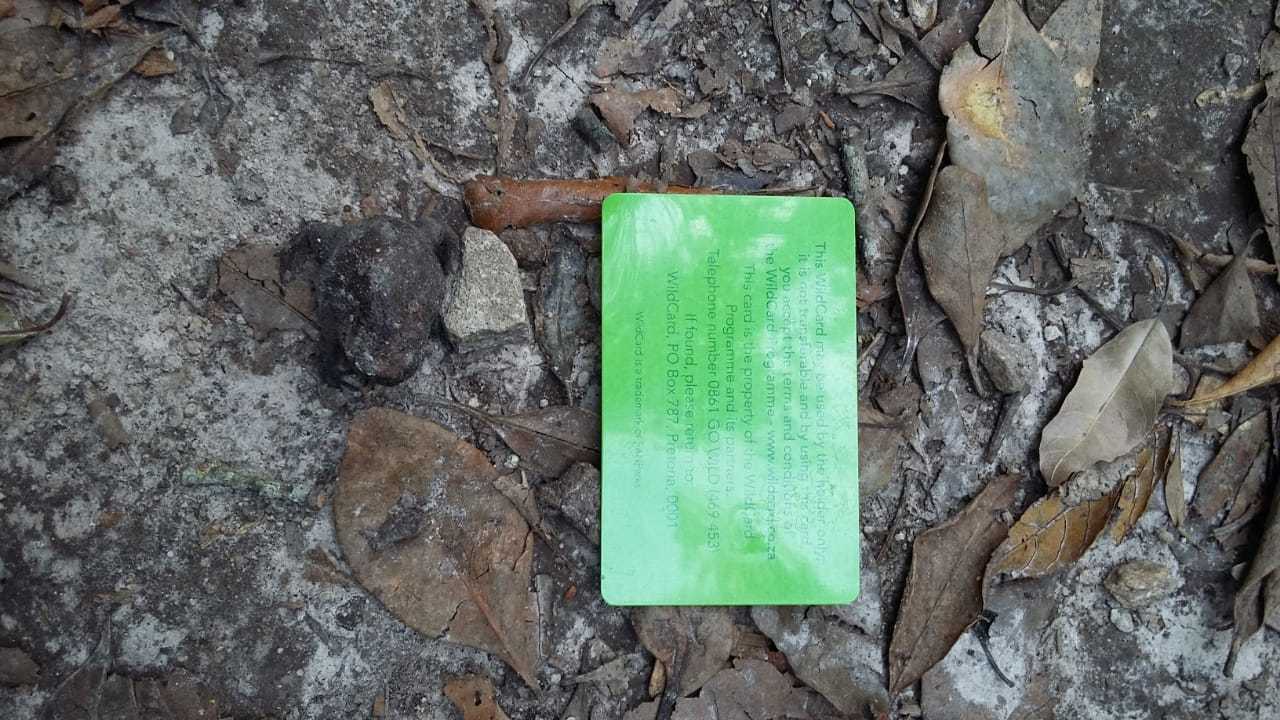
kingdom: Animalia
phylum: Chordata
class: Amphibia
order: Anura
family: Brevicipitidae
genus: Breviceps
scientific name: Breviceps fuscus
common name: Black rain frog
